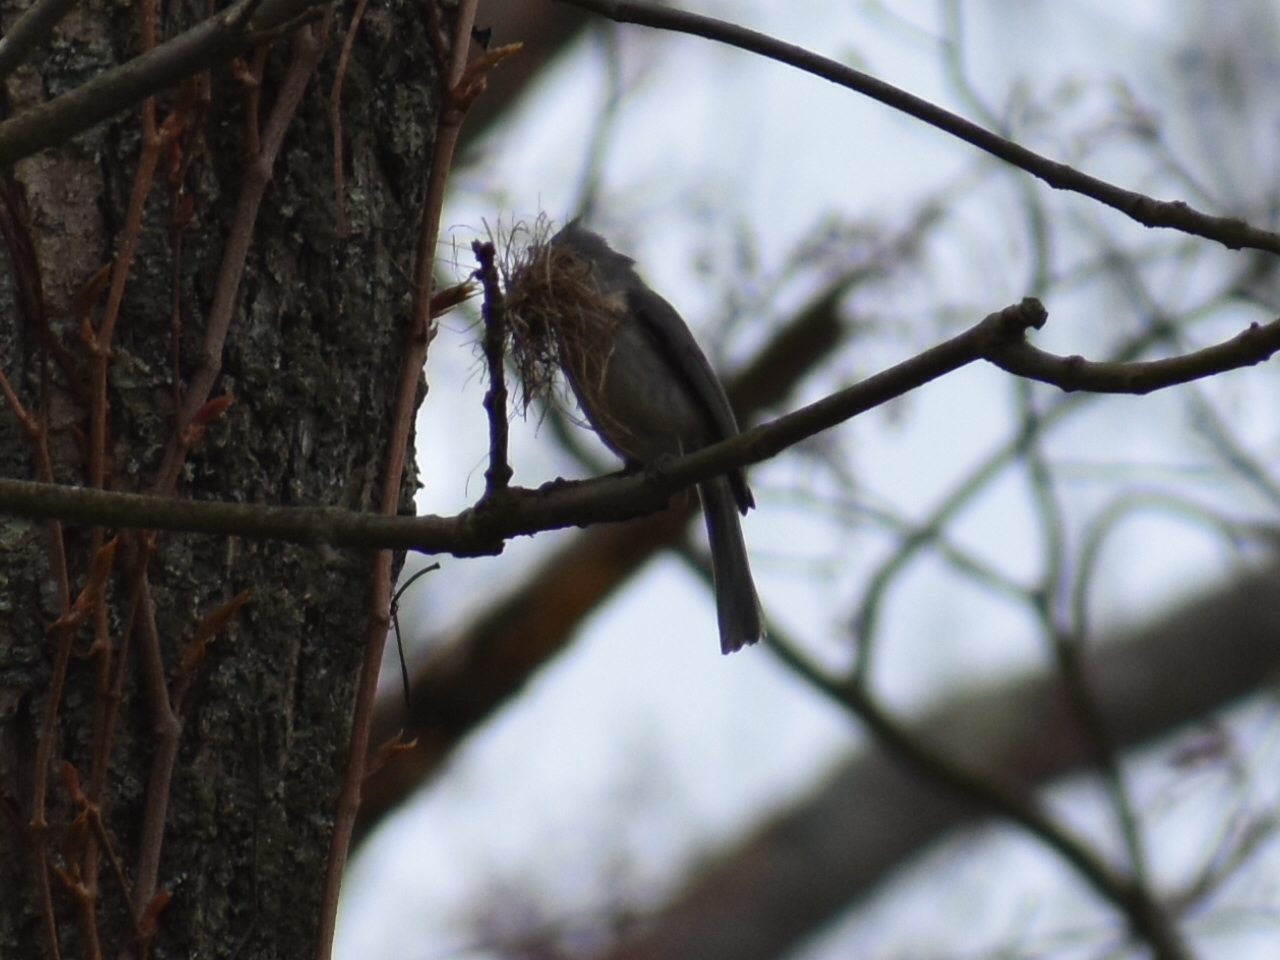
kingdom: Animalia
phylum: Chordata
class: Aves
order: Passeriformes
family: Paridae
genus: Baeolophus
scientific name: Baeolophus bicolor
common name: Tufted titmouse
